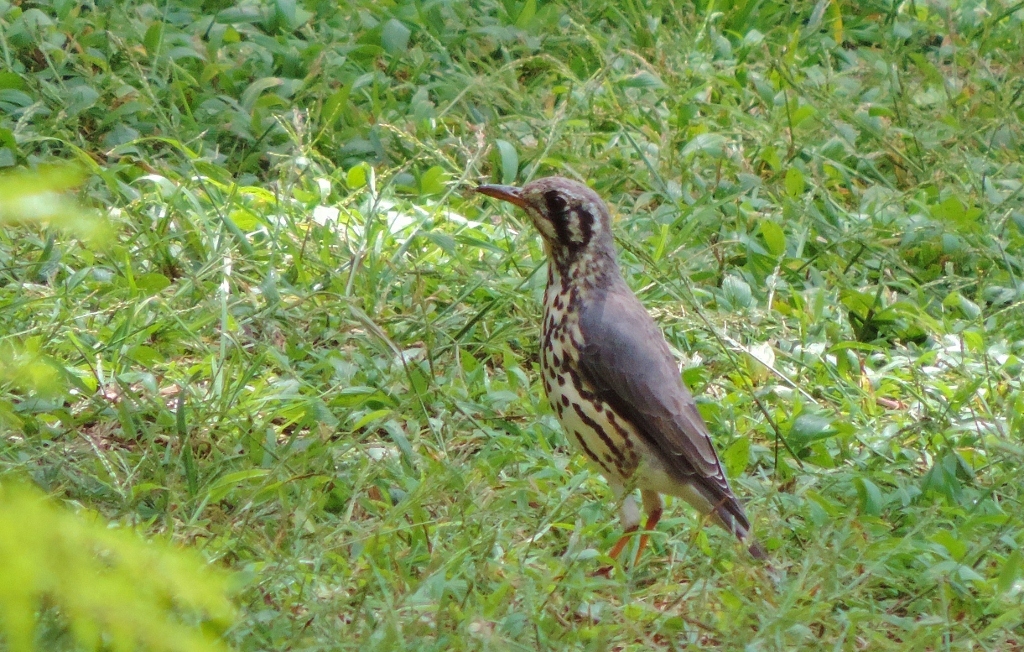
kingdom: Animalia
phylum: Chordata
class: Aves
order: Passeriformes
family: Turdidae
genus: Psophocichla
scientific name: Psophocichla litsitsirupa
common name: Groundscraper thrush
